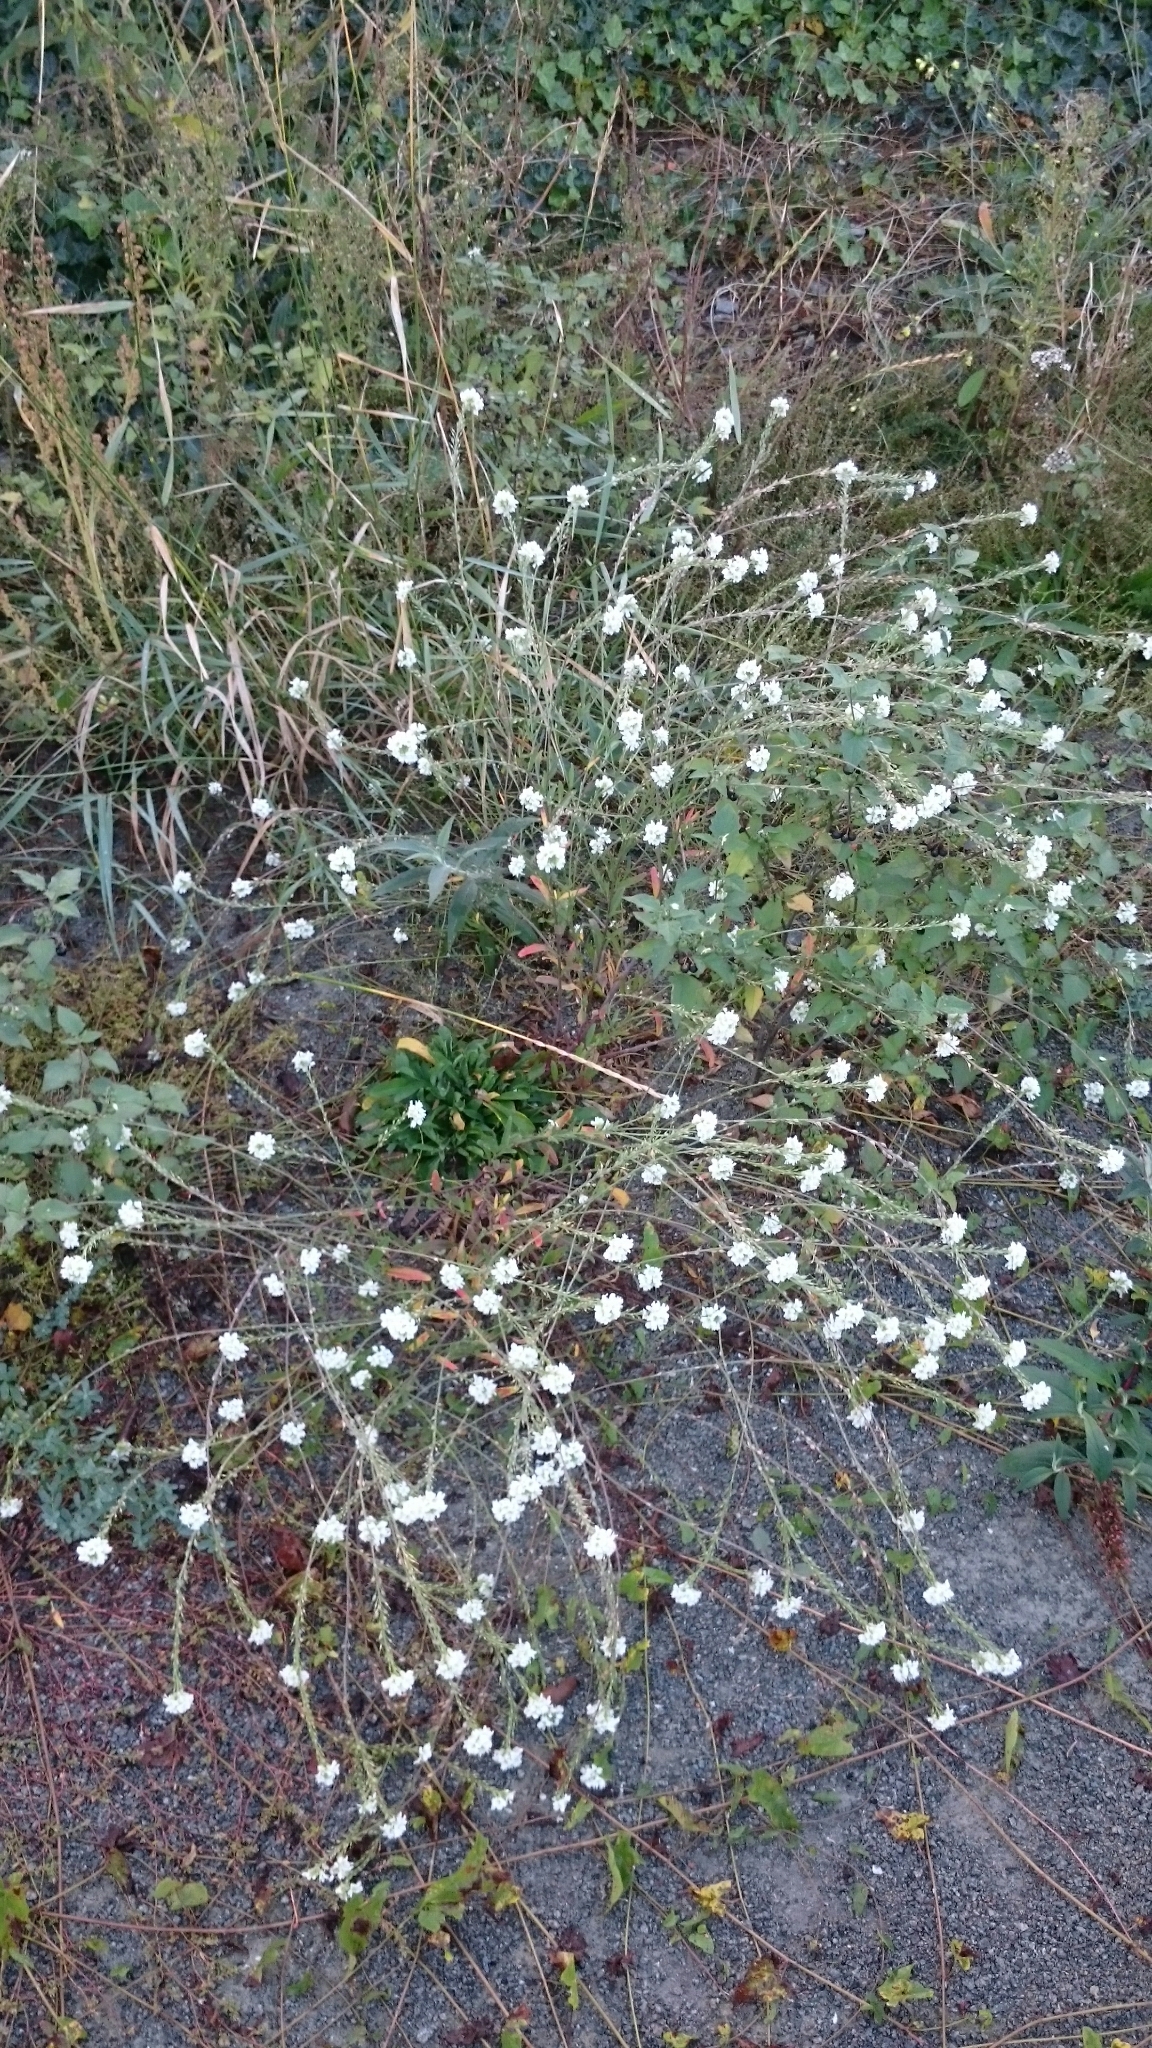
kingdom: Plantae
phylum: Tracheophyta
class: Magnoliopsida
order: Brassicales
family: Brassicaceae
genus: Berteroa
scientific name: Berteroa incana
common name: Hoary alison
